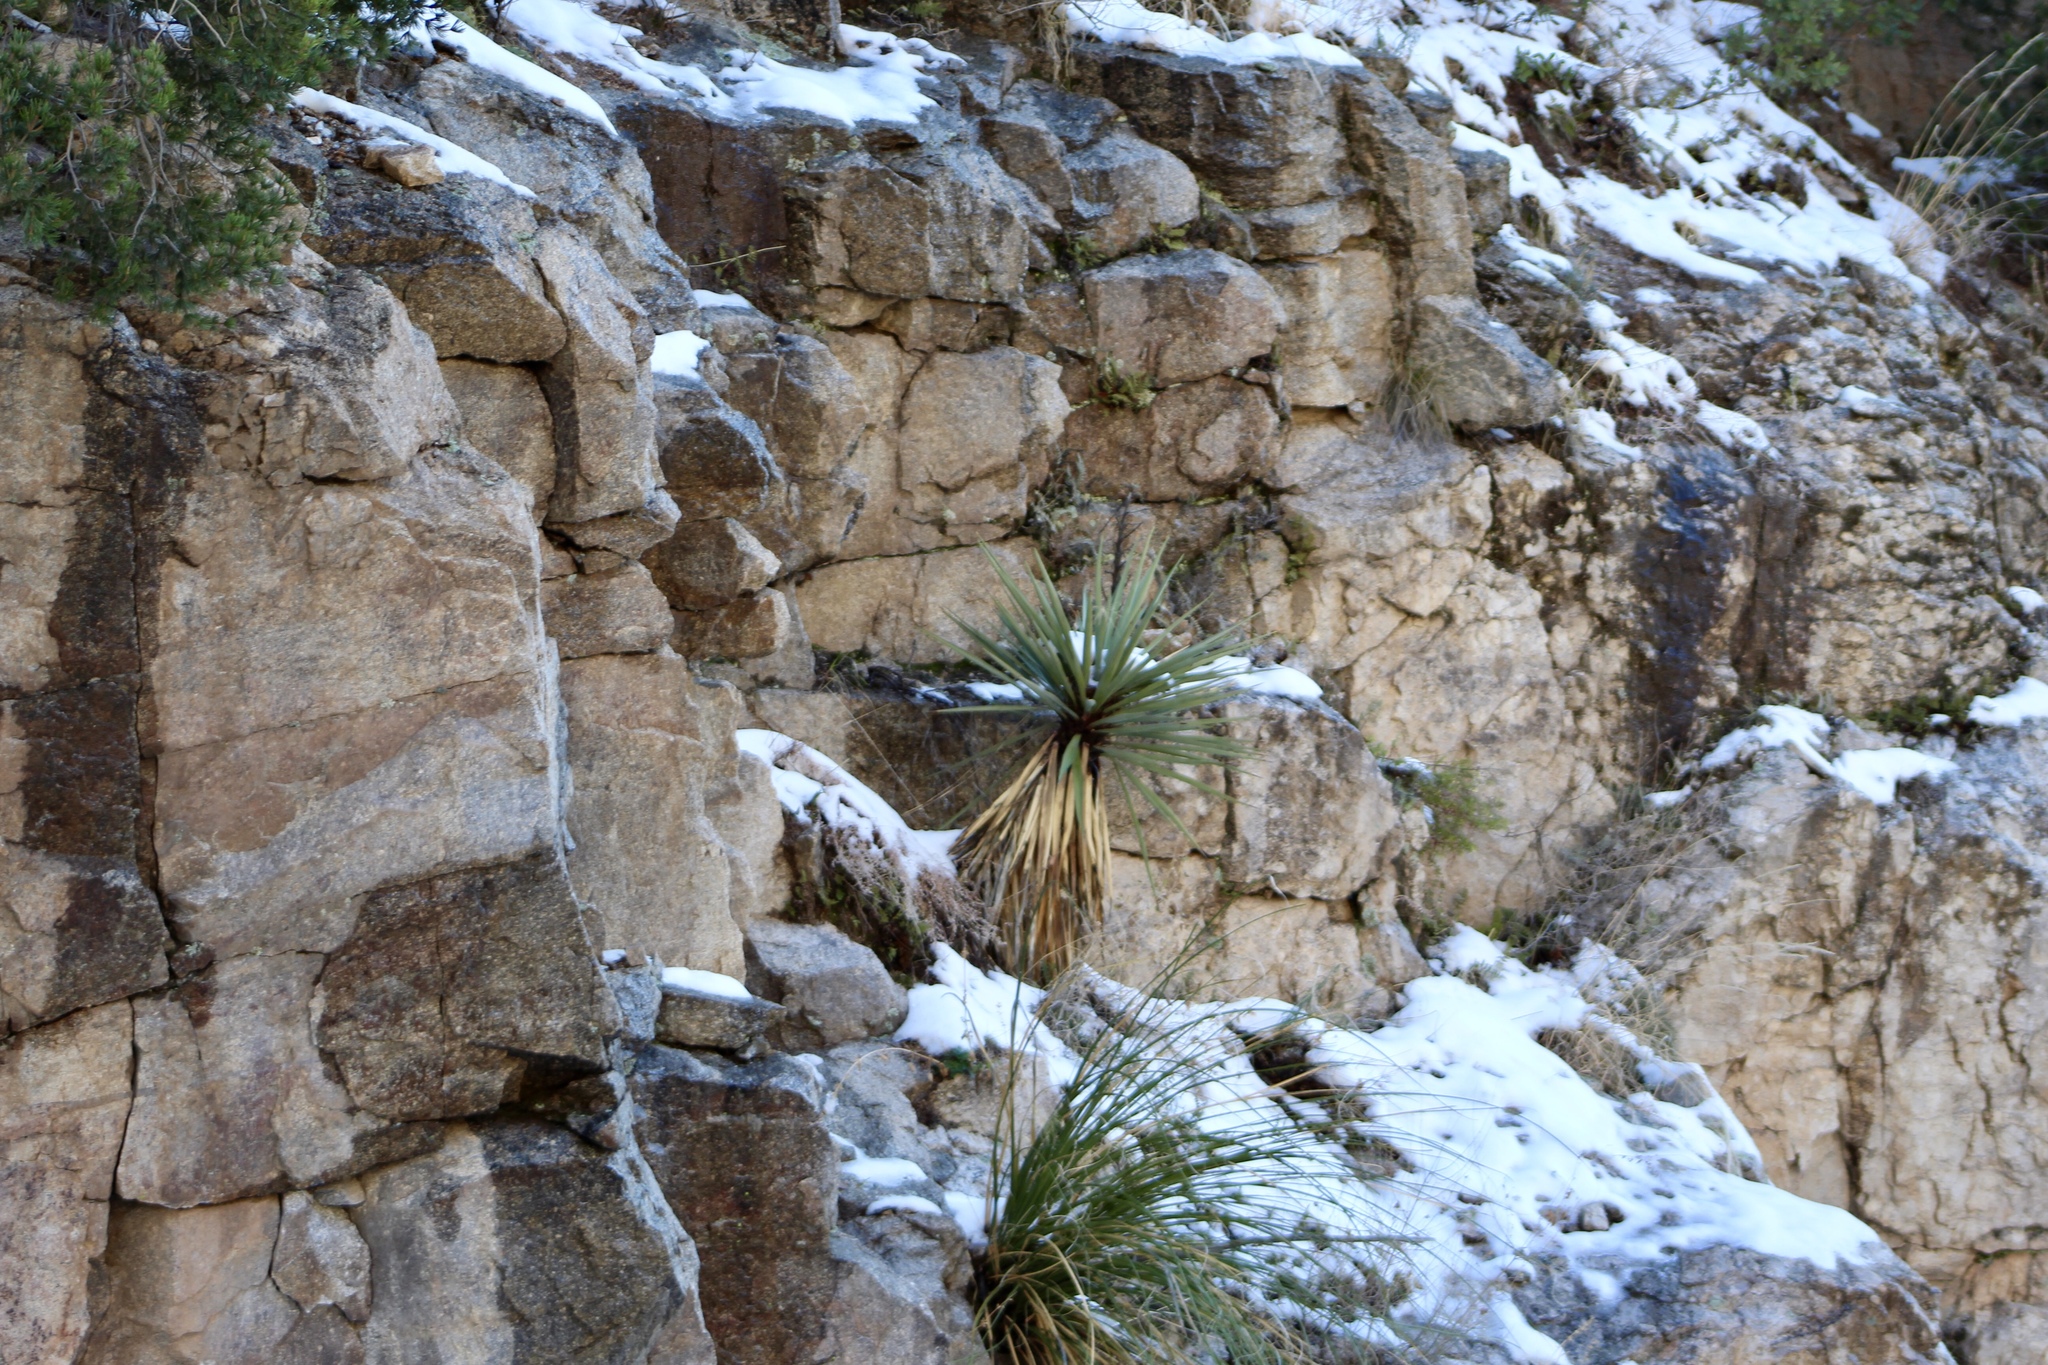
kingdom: Plantae
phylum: Tracheophyta
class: Liliopsida
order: Asparagales
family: Asparagaceae
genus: Yucca
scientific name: Yucca madrensis
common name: Hoary yucca
